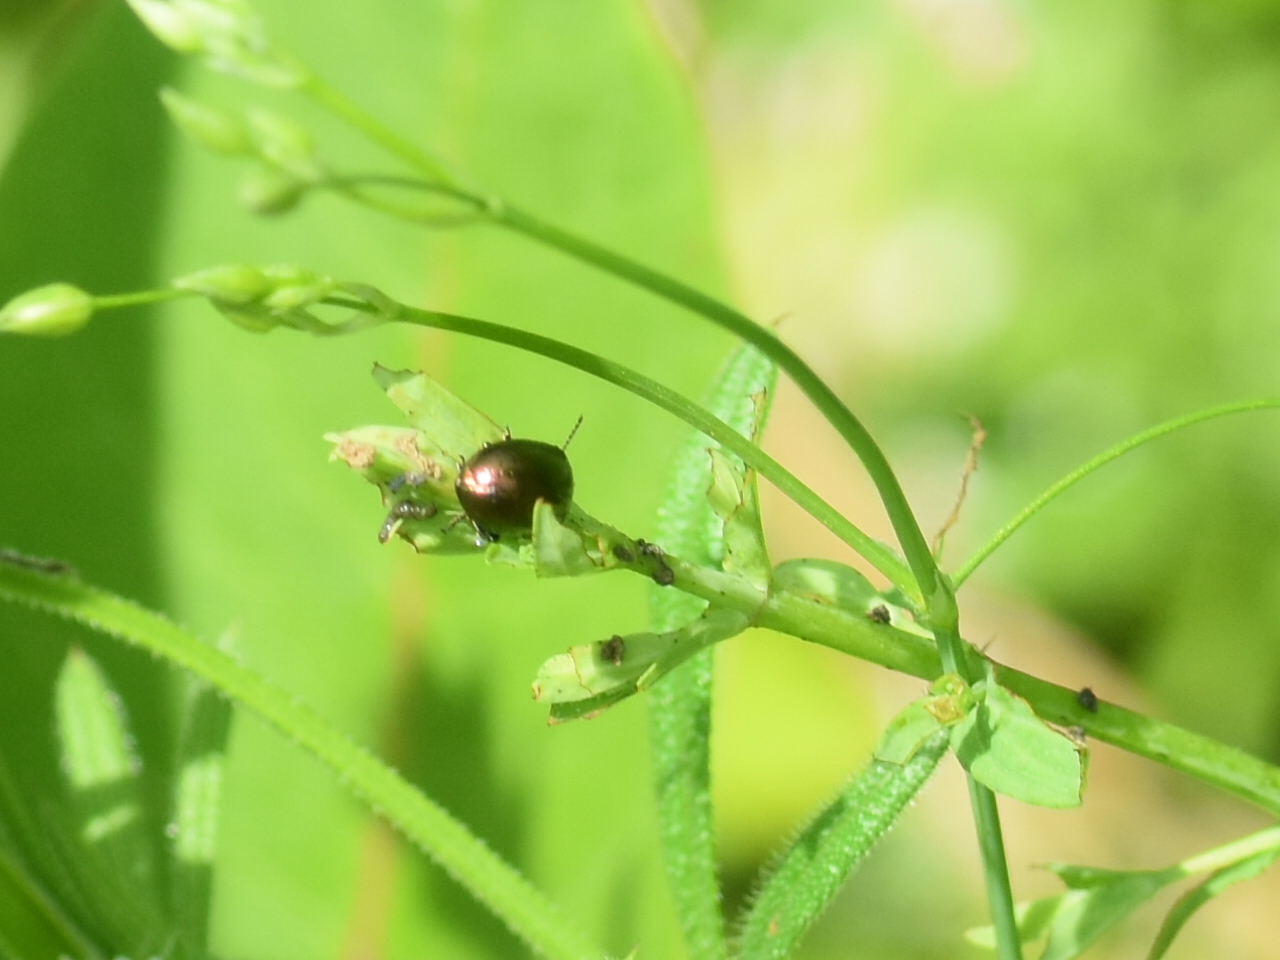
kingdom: Animalia
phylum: Arthropoda
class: Insecta
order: Coleoptera
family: Chrysomelidae
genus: Chrysolina
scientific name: Chrysolina hyperici
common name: St. johnswort beetle
